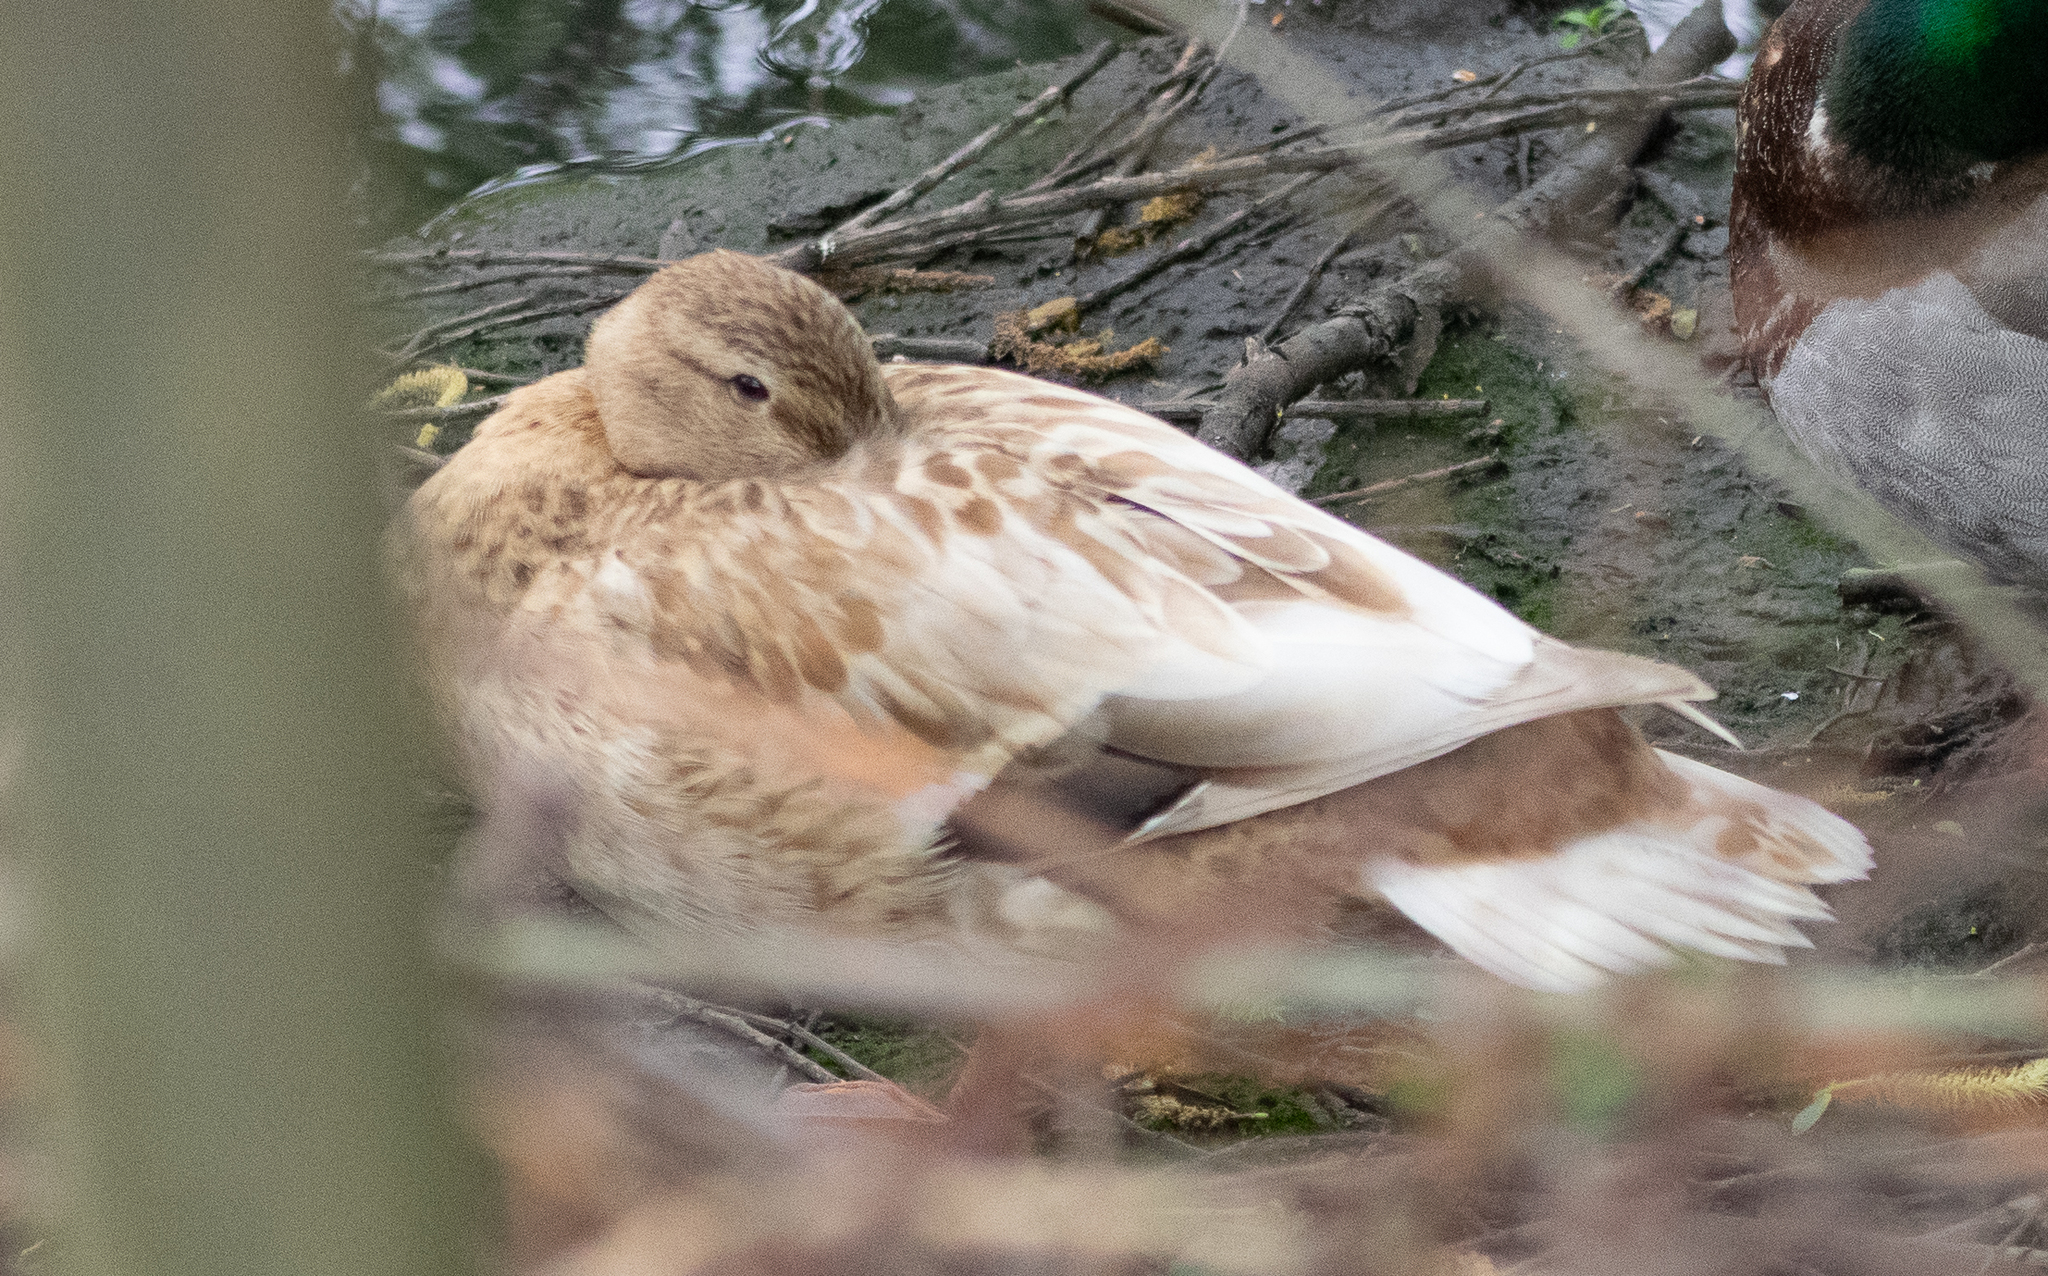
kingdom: Animalia
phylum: Chordata
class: Aves
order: Anseriformes
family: Anatidae
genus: Anas
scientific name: Anas platyrhynchos
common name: Mallard
